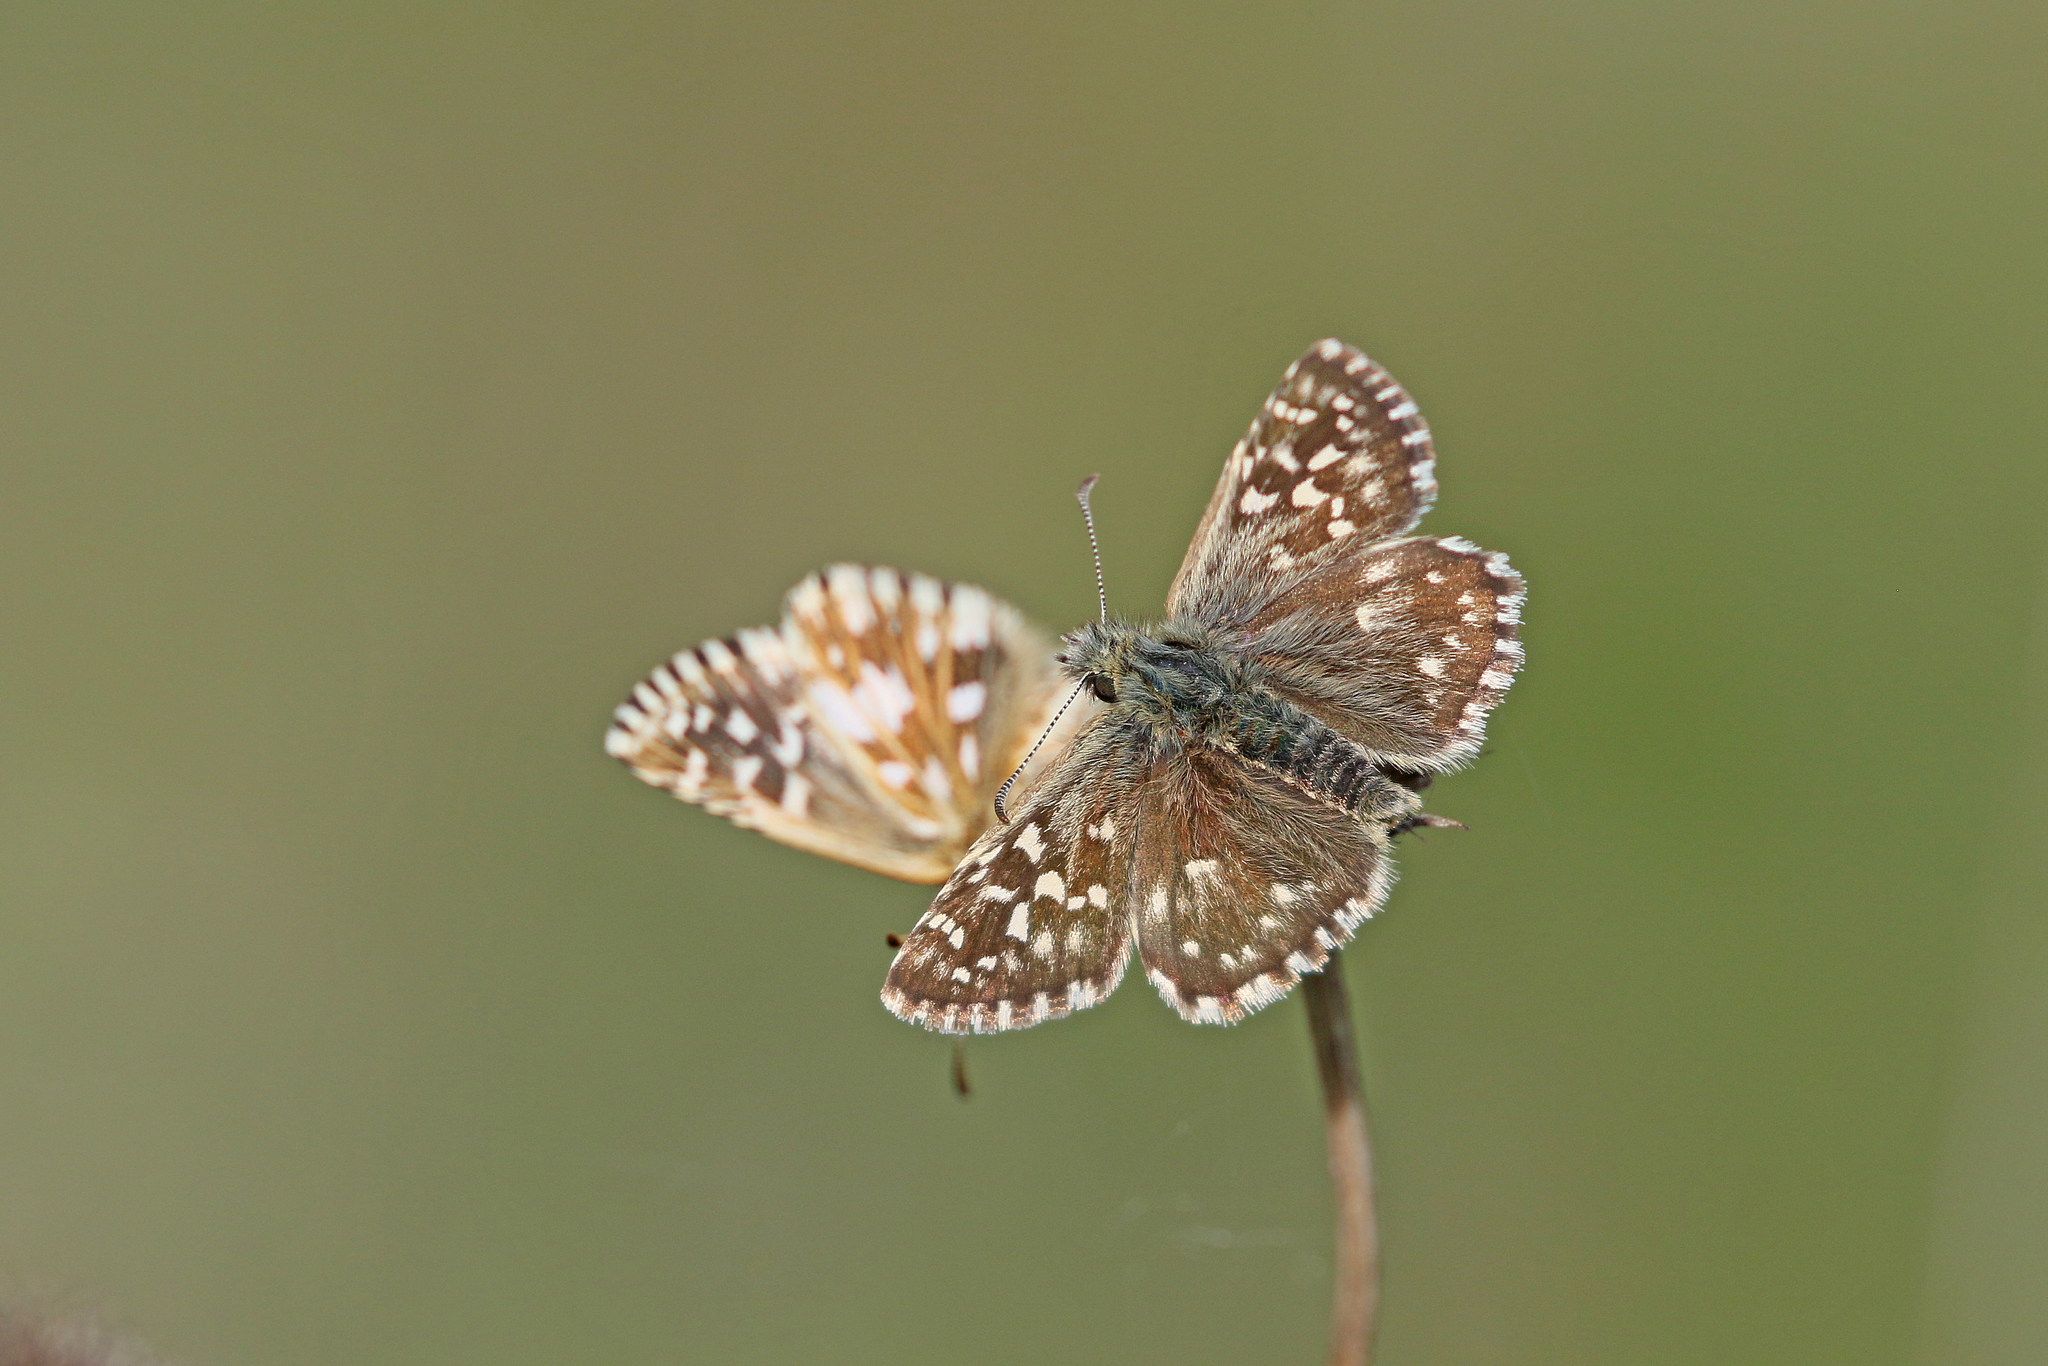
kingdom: Animalia
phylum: Arthropoda
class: Insecta
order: Lepidoptera
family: Hesperiidae
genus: Pyrgus
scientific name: Pyrgus malvae
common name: Grizzled skipper
